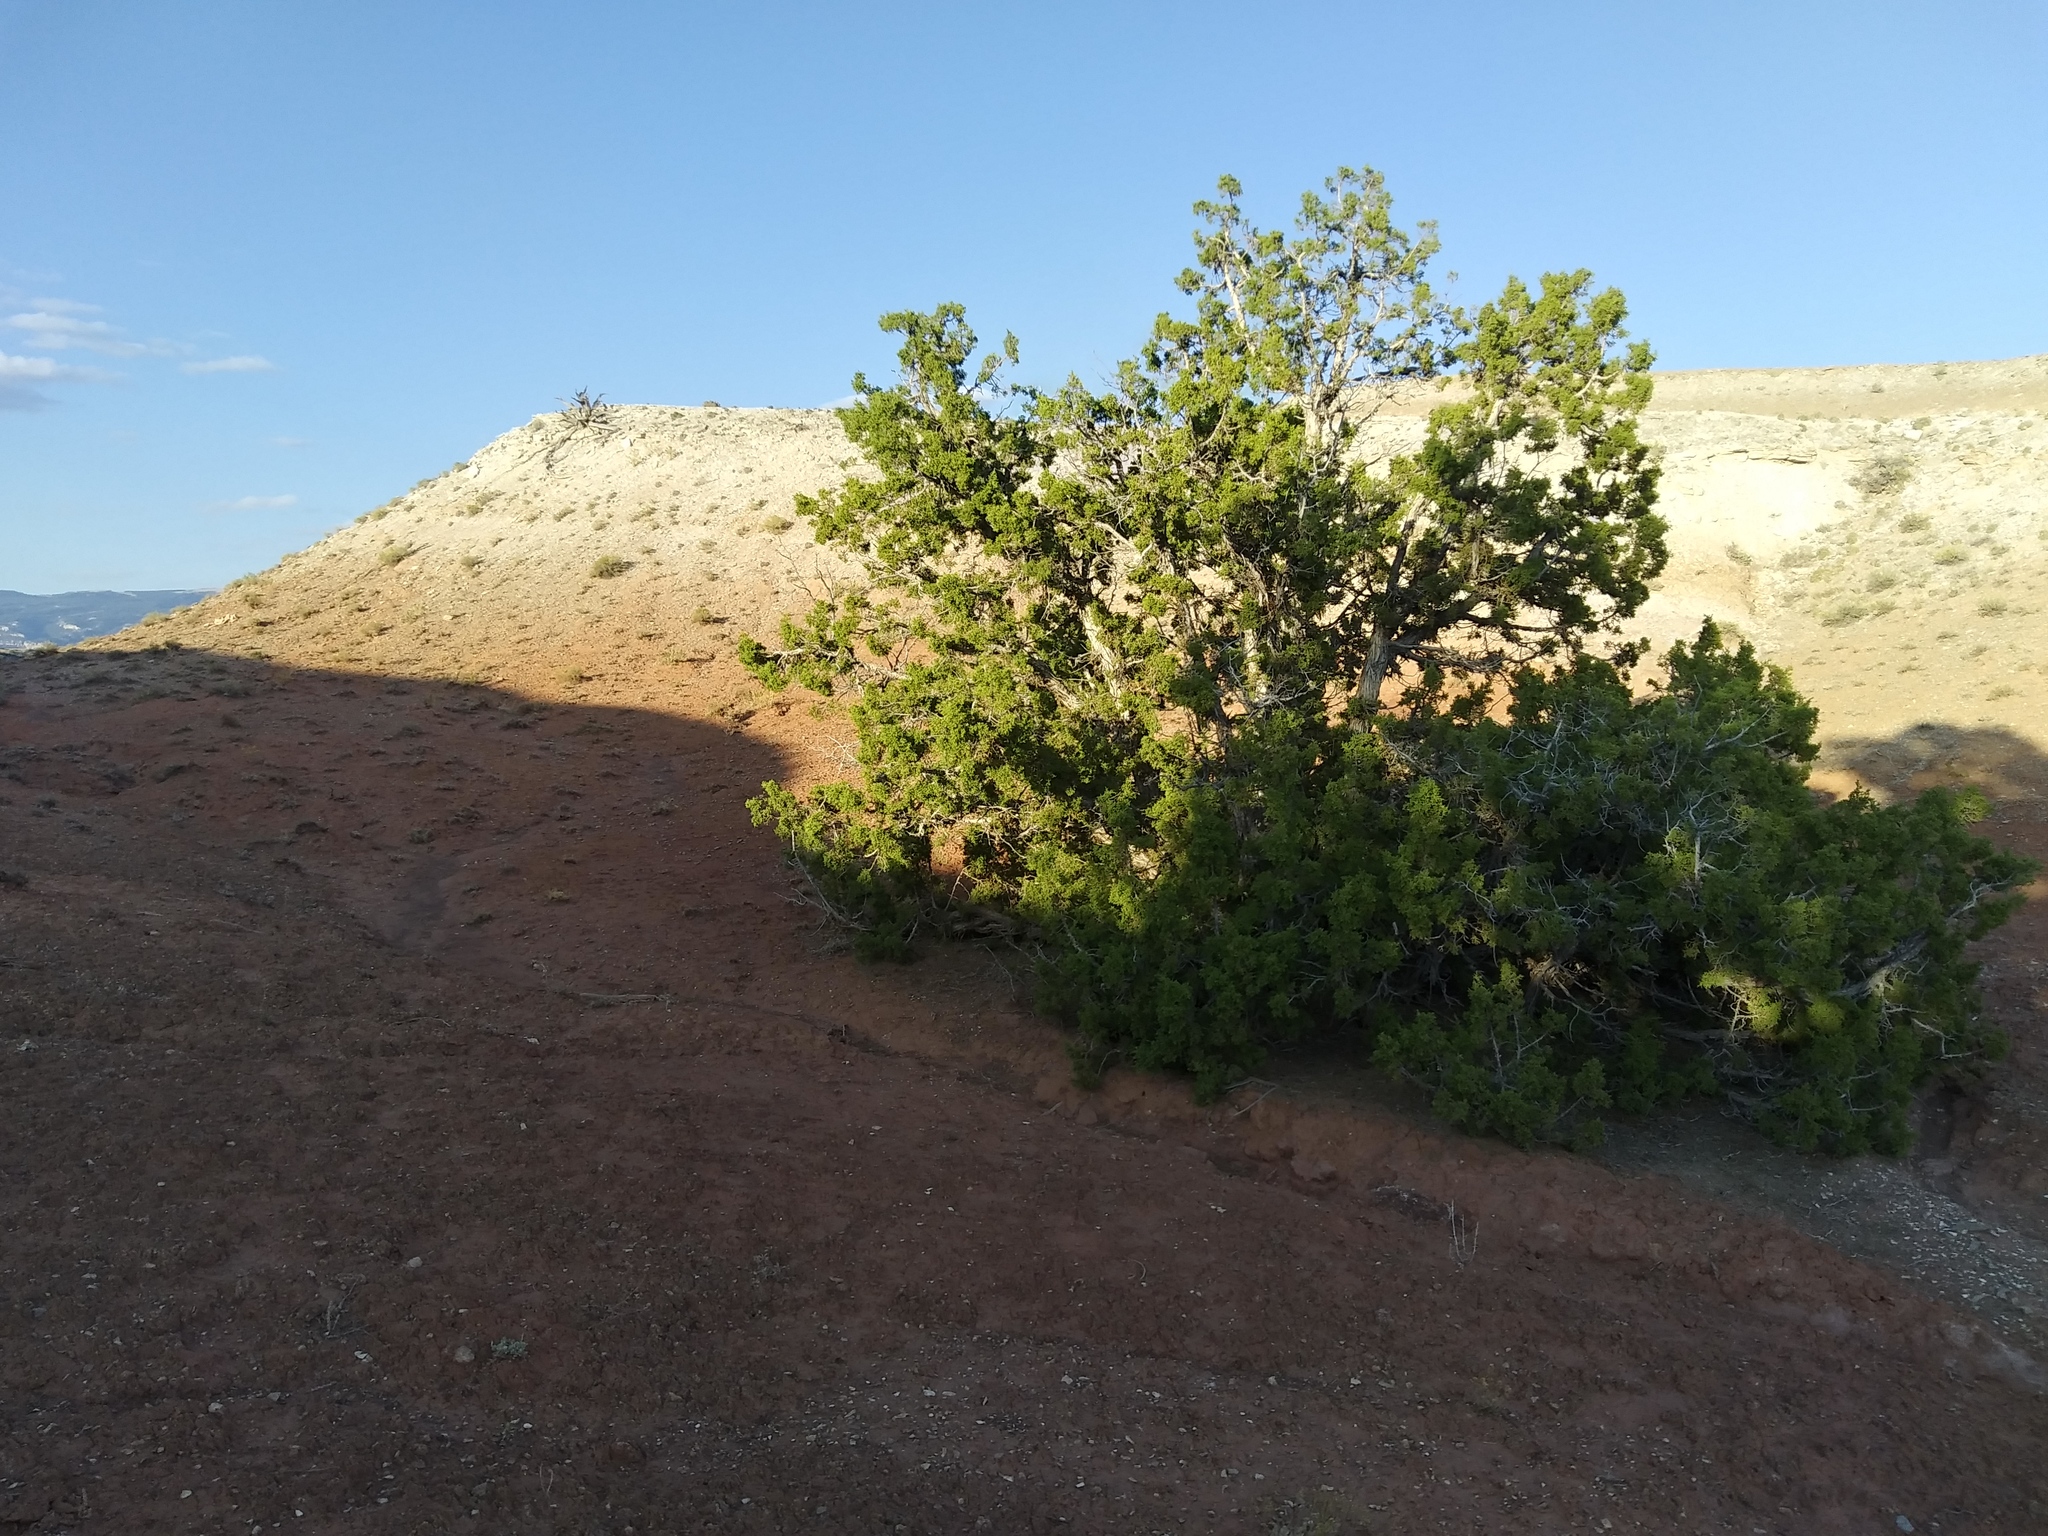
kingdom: Plantae
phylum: Tracheophyta
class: Pinopsida
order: Pinales
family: Cupressaceae
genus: Juniperus
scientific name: Juniperus osteosperma
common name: Utah juniper
